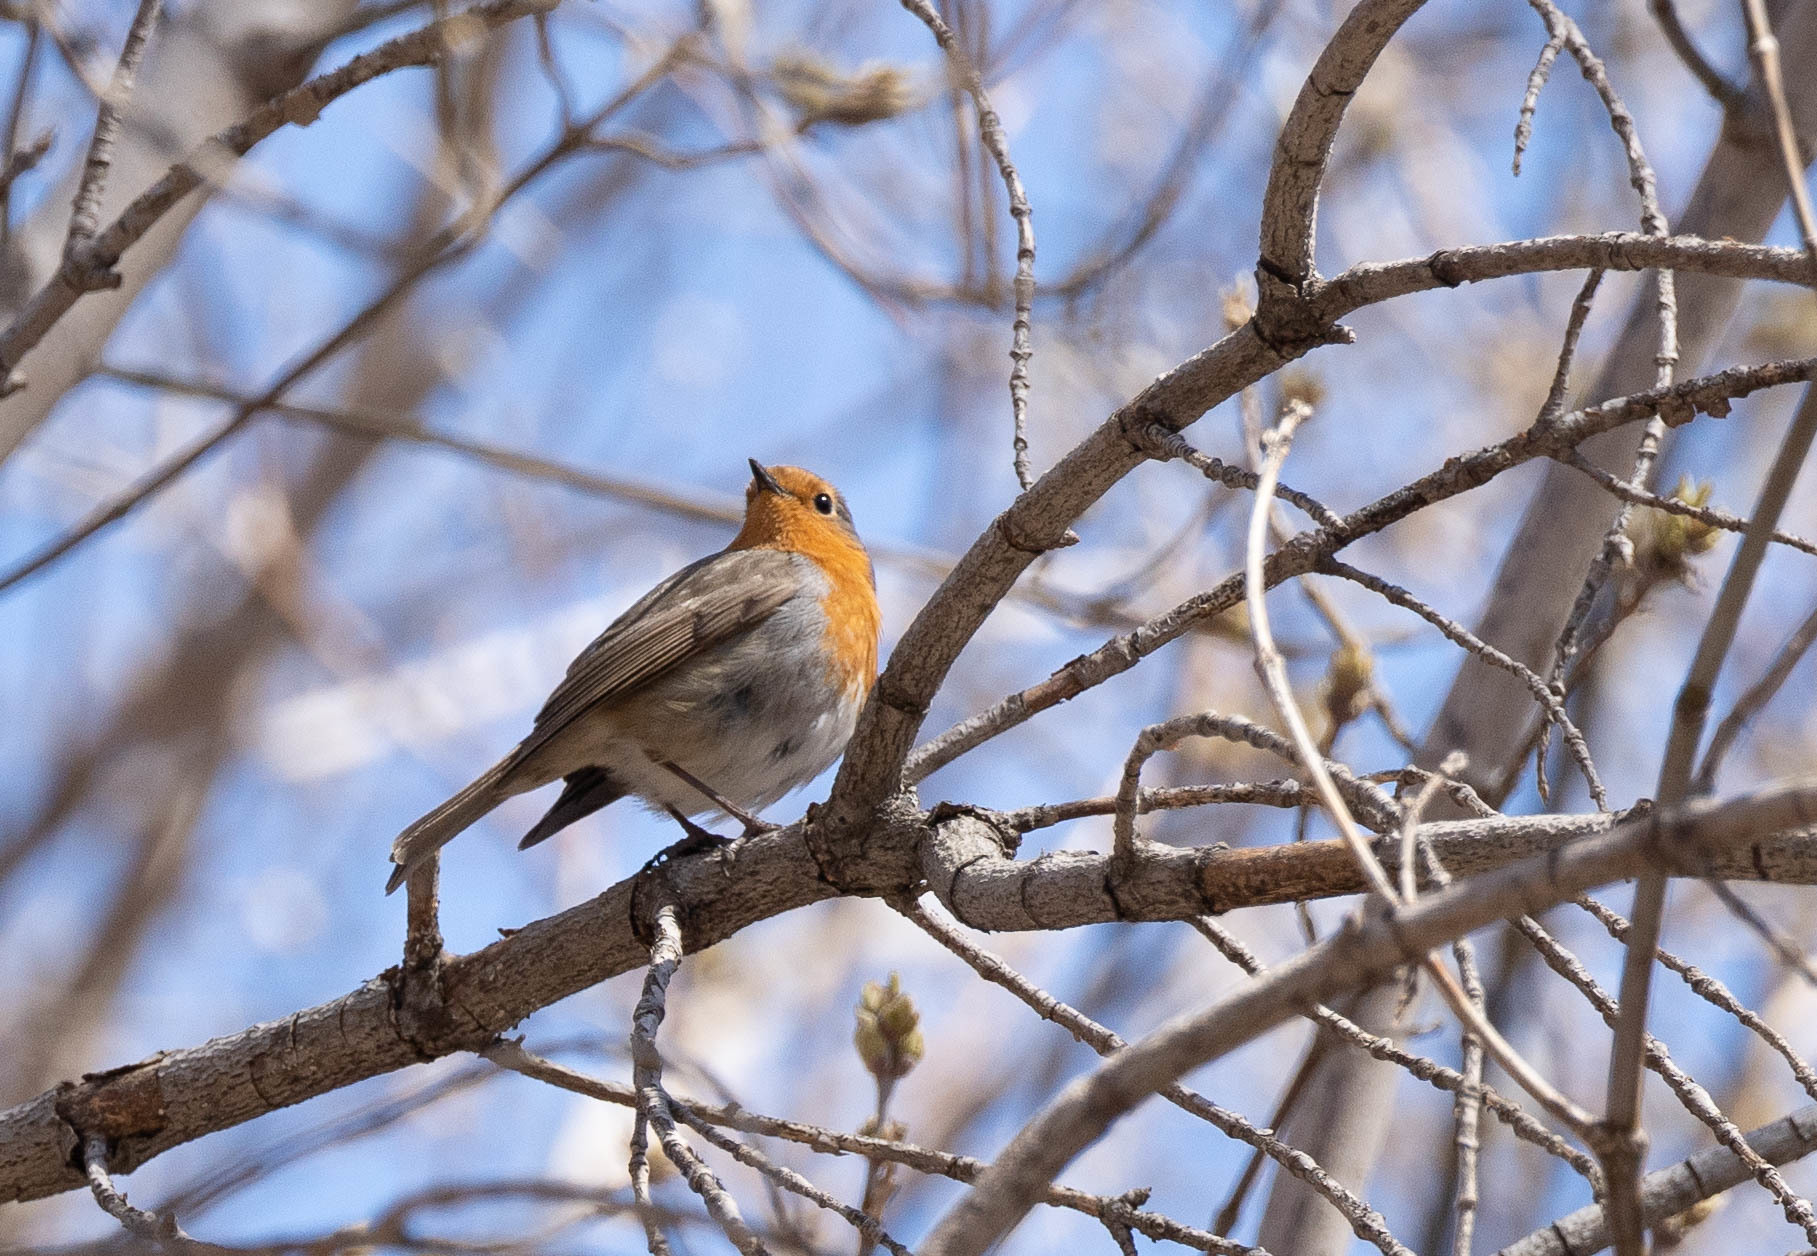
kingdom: Animalia
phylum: Chordata
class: Aves
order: Passeriformes
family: Muscicapidae
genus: Erithacus
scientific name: Erithacus rubecula
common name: European robin
